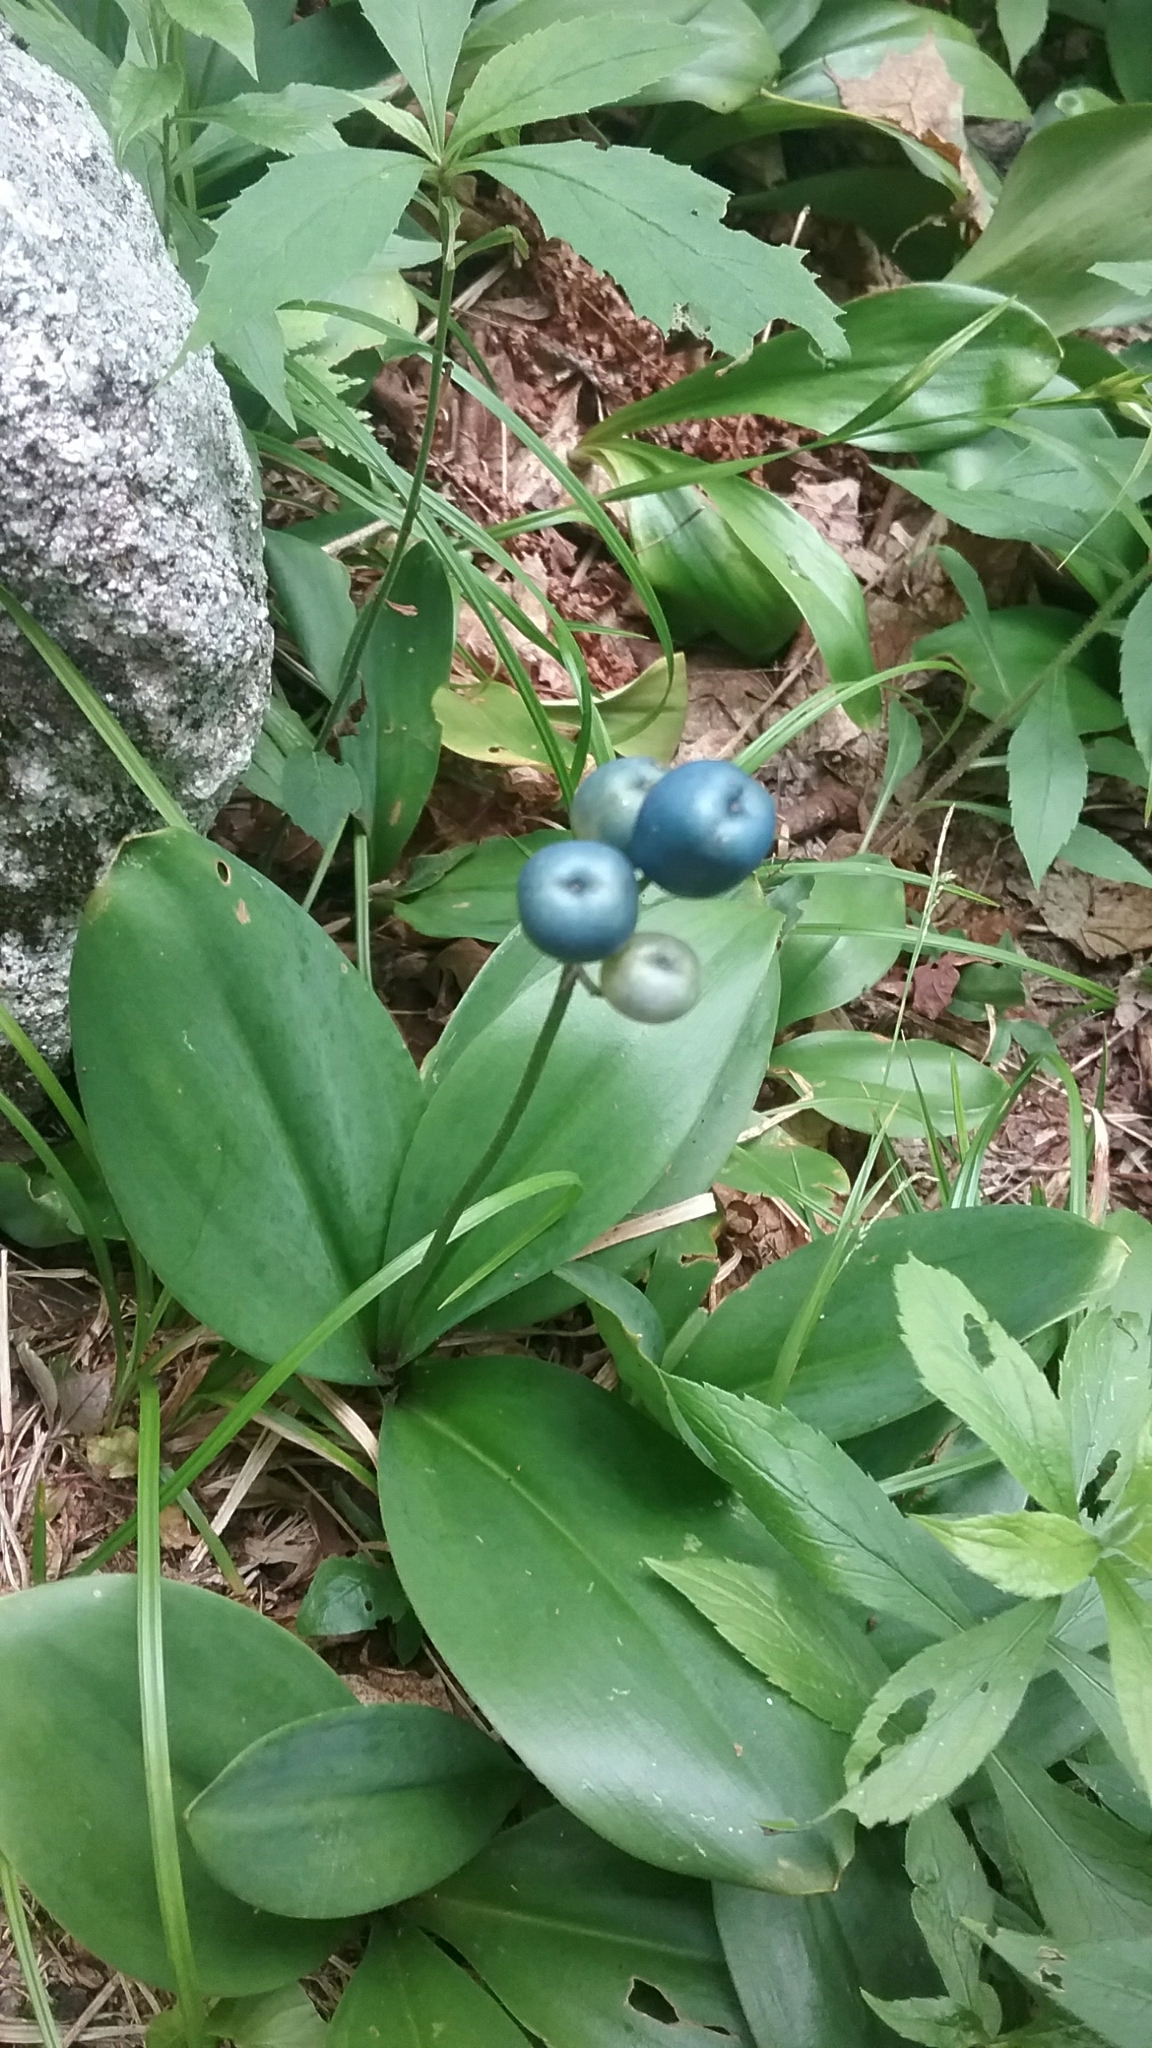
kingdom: Plantae
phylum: Tracheophyta
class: Liliopsida
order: Liliales
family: Liliaceae
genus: Clintonia
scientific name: Clintonia borealis
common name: Yellow clintonia
